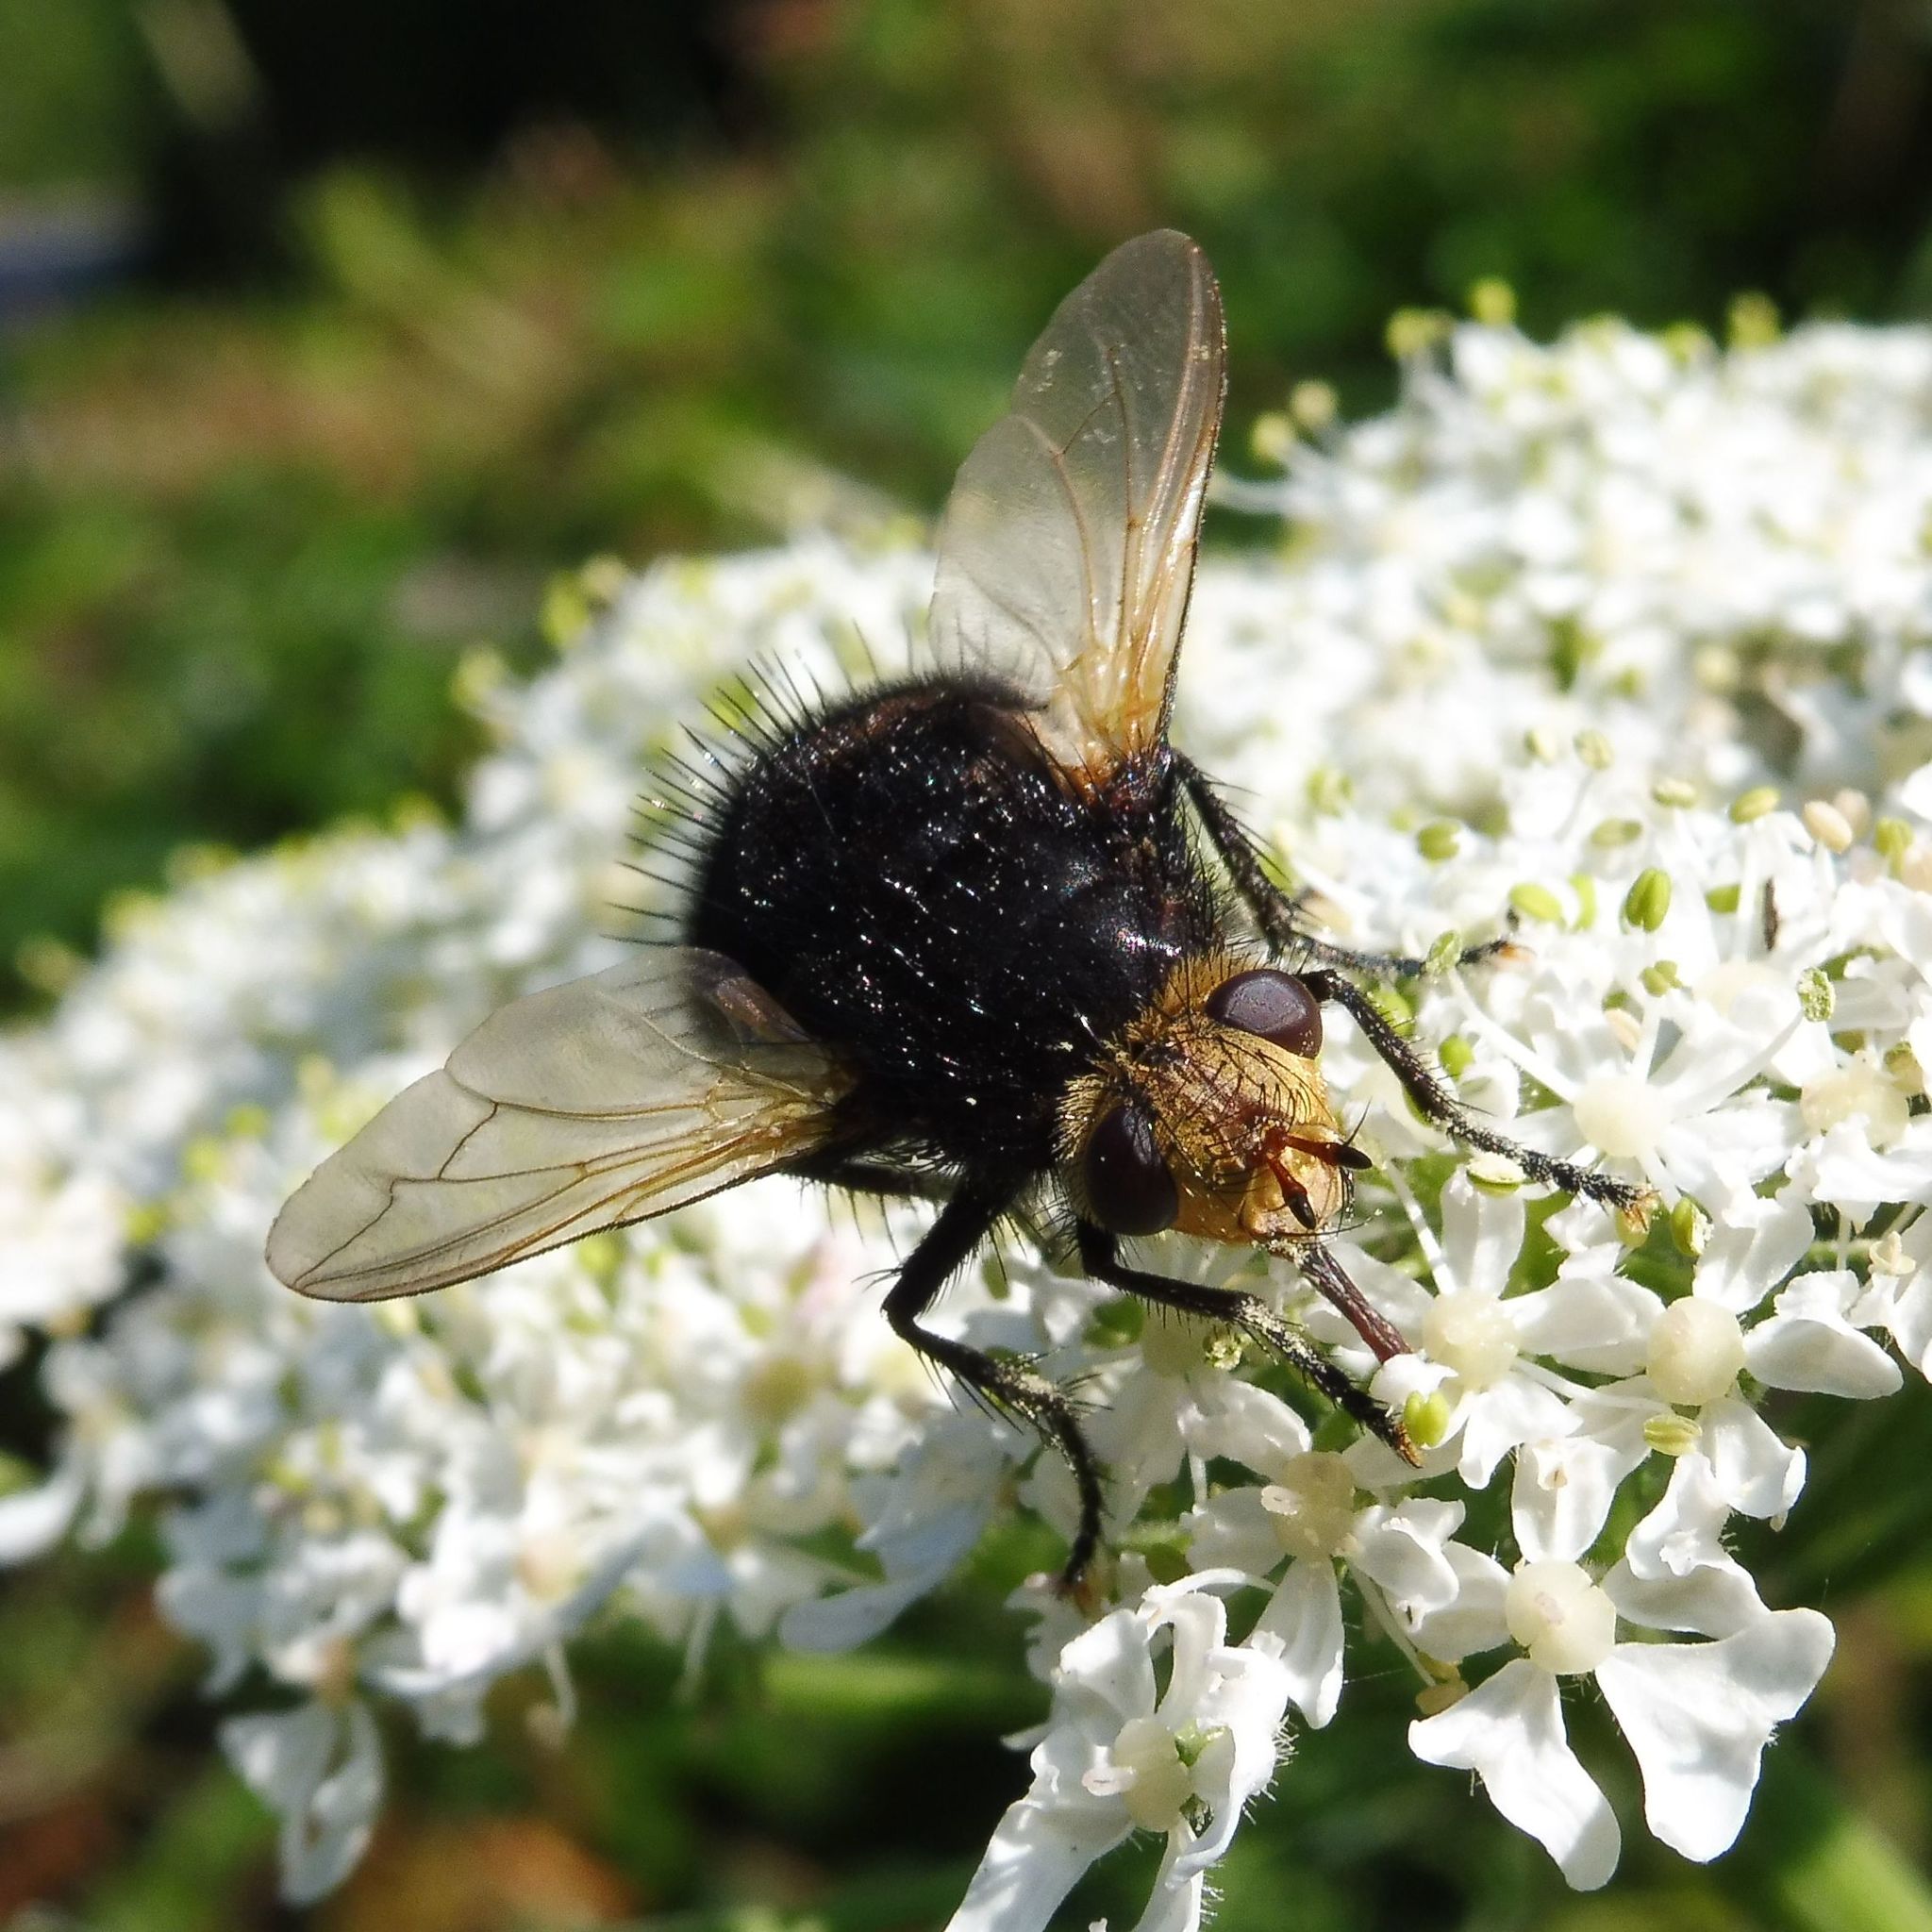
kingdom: Animalia
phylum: Arthropoda
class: Insecta
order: Diptera
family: Tachinidae
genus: Tachina
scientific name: Tachina grossa
